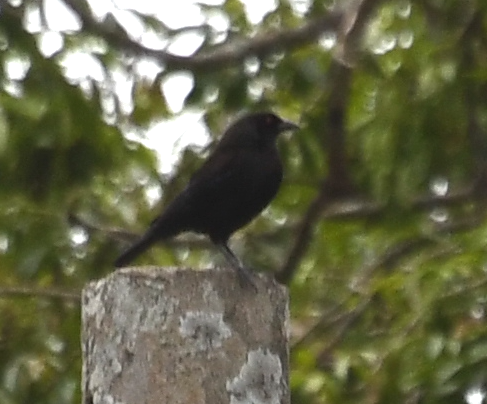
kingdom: Animalia
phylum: Chordata
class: Aves
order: Passeriformes
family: Icteridae
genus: Molothrus
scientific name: Molothrus aeneus
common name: Bronzed cowbird
